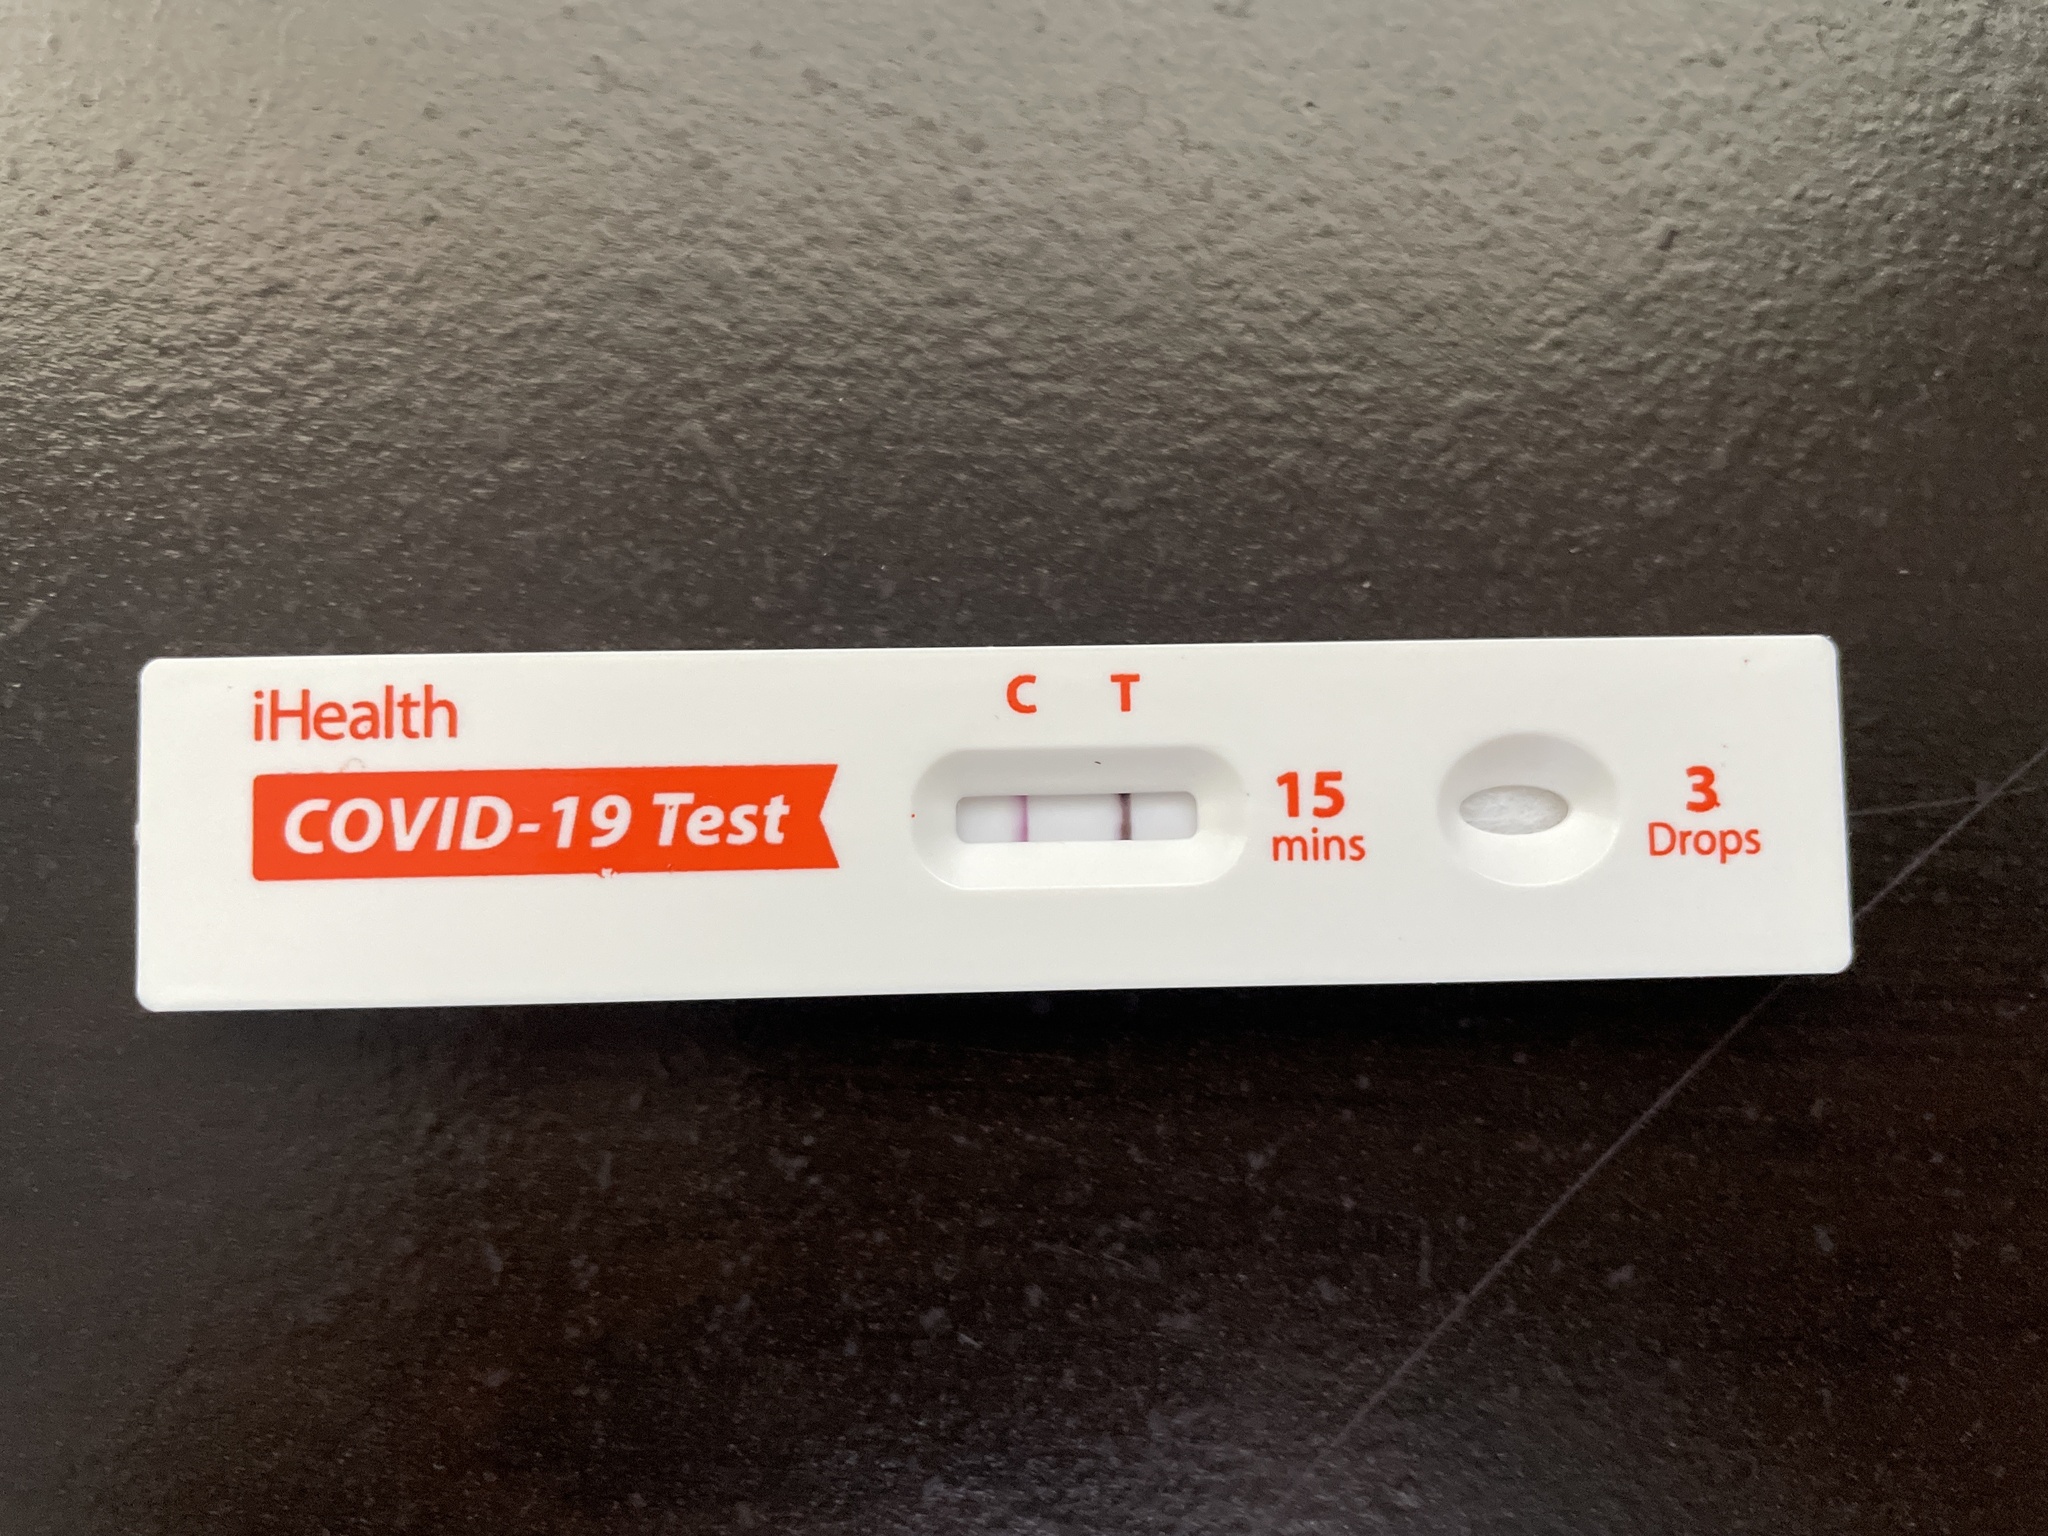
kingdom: Viruses
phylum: Pisuviricota
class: Pisoniviricetes
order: Nidovirales
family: Coronaviridae
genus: Betacoronavirus
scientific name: Betacoronavirus
